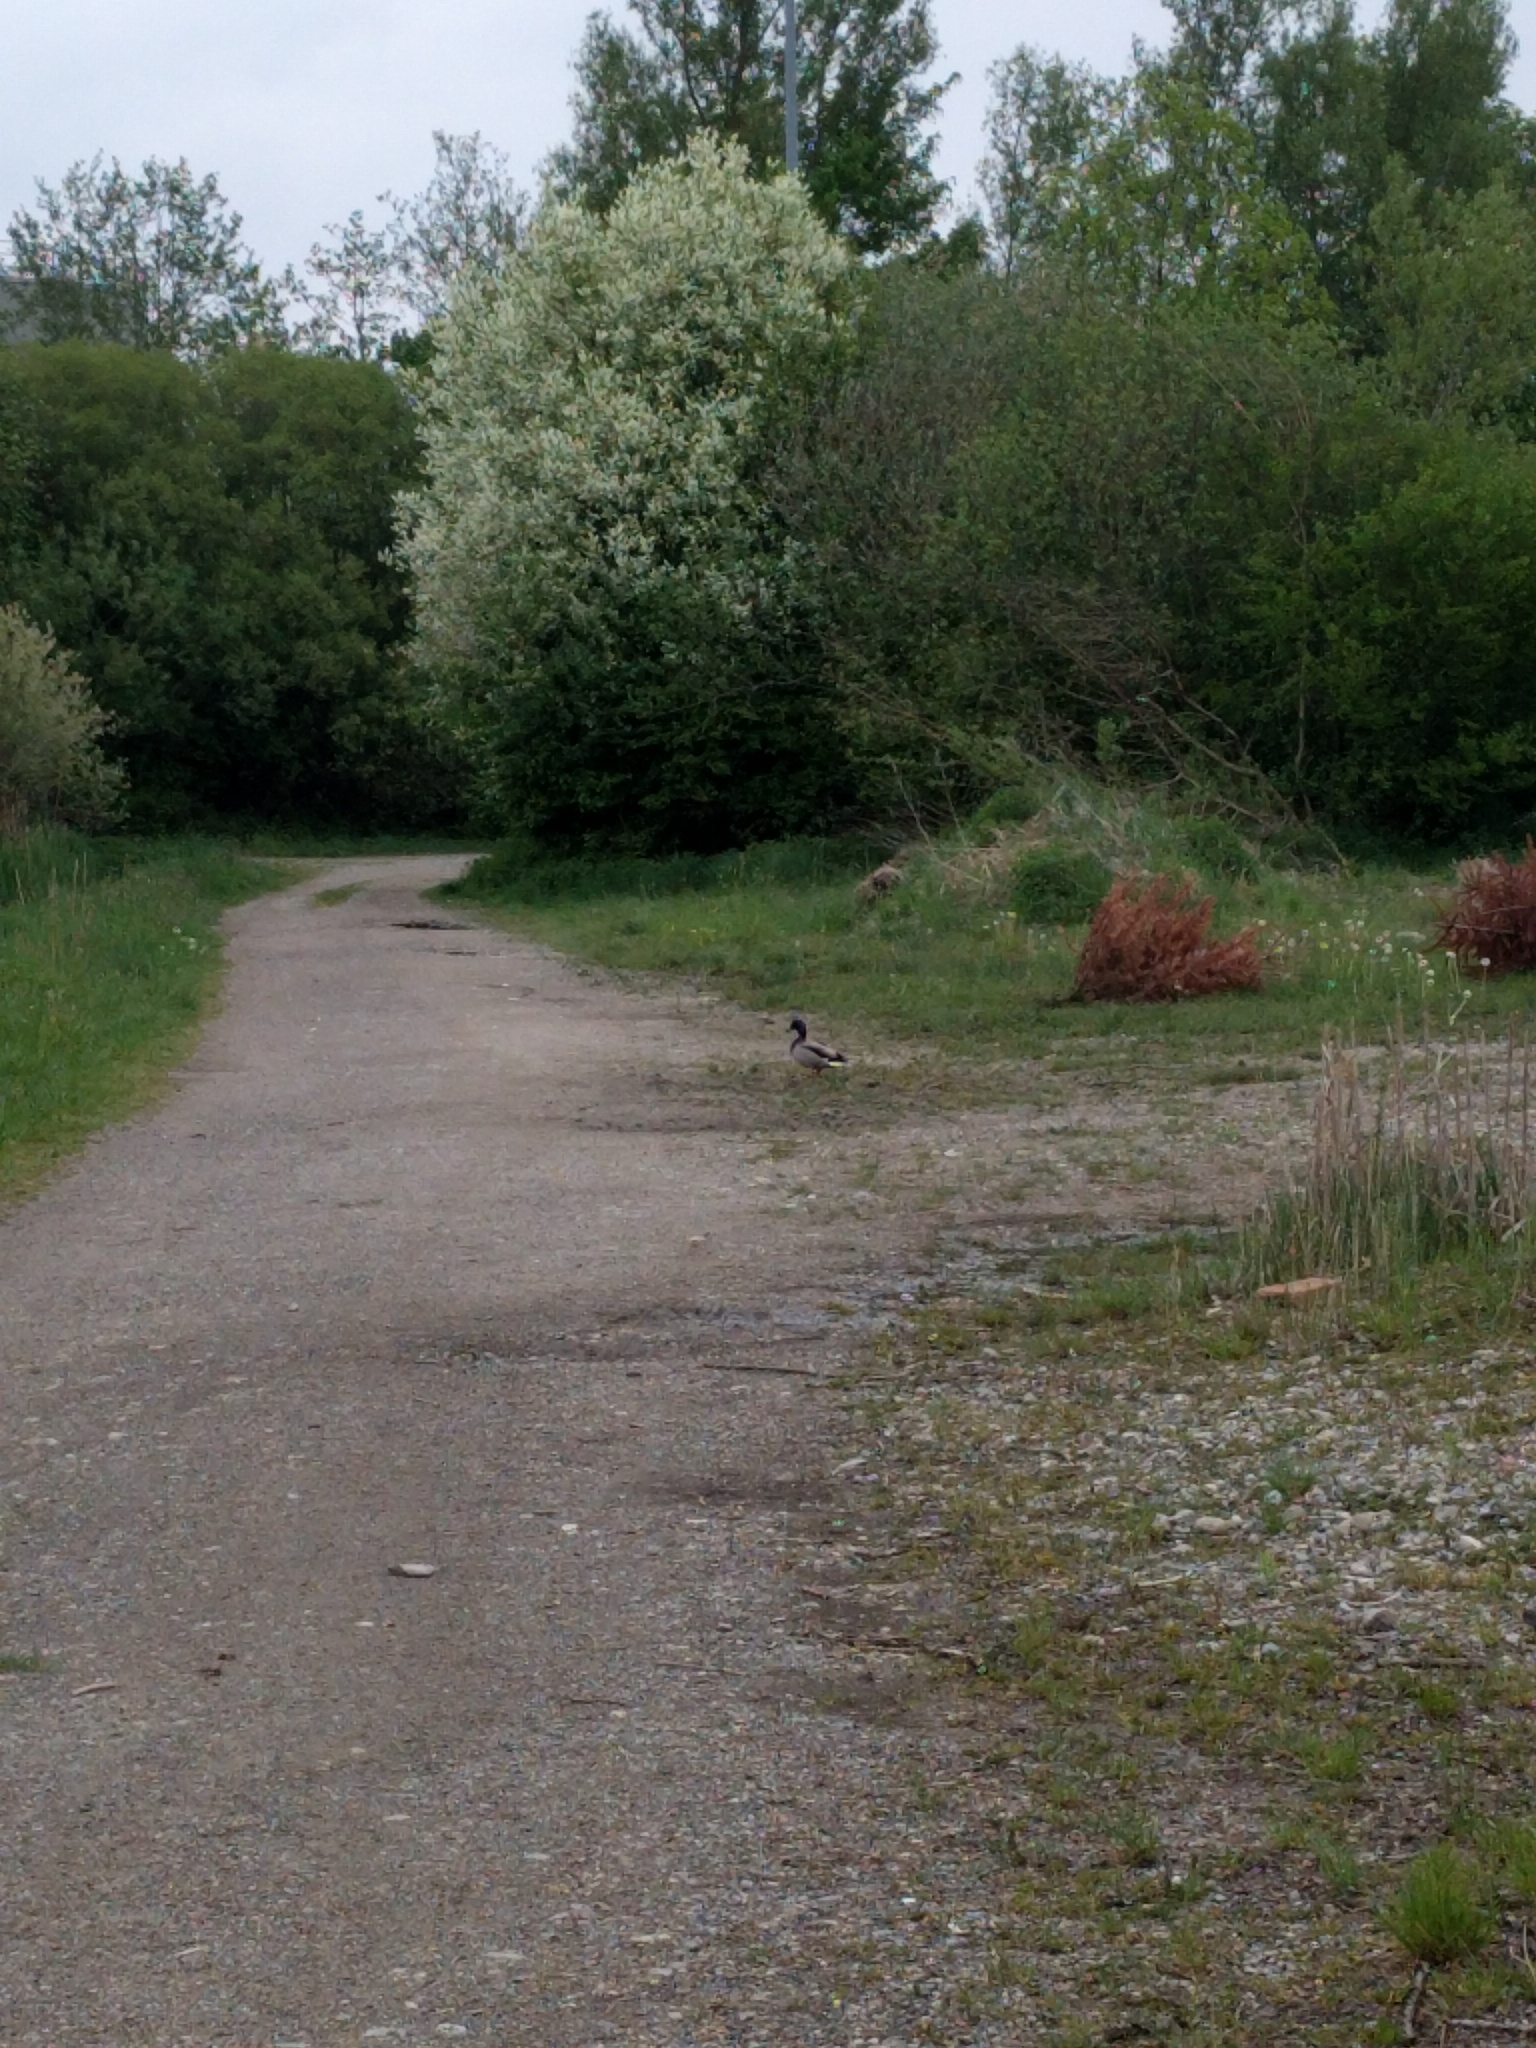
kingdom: Animalia
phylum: Chordata
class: Aves
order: Anseriformes
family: Anatidae
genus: Anas
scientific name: Anas platyrhynchos
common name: Mallard
